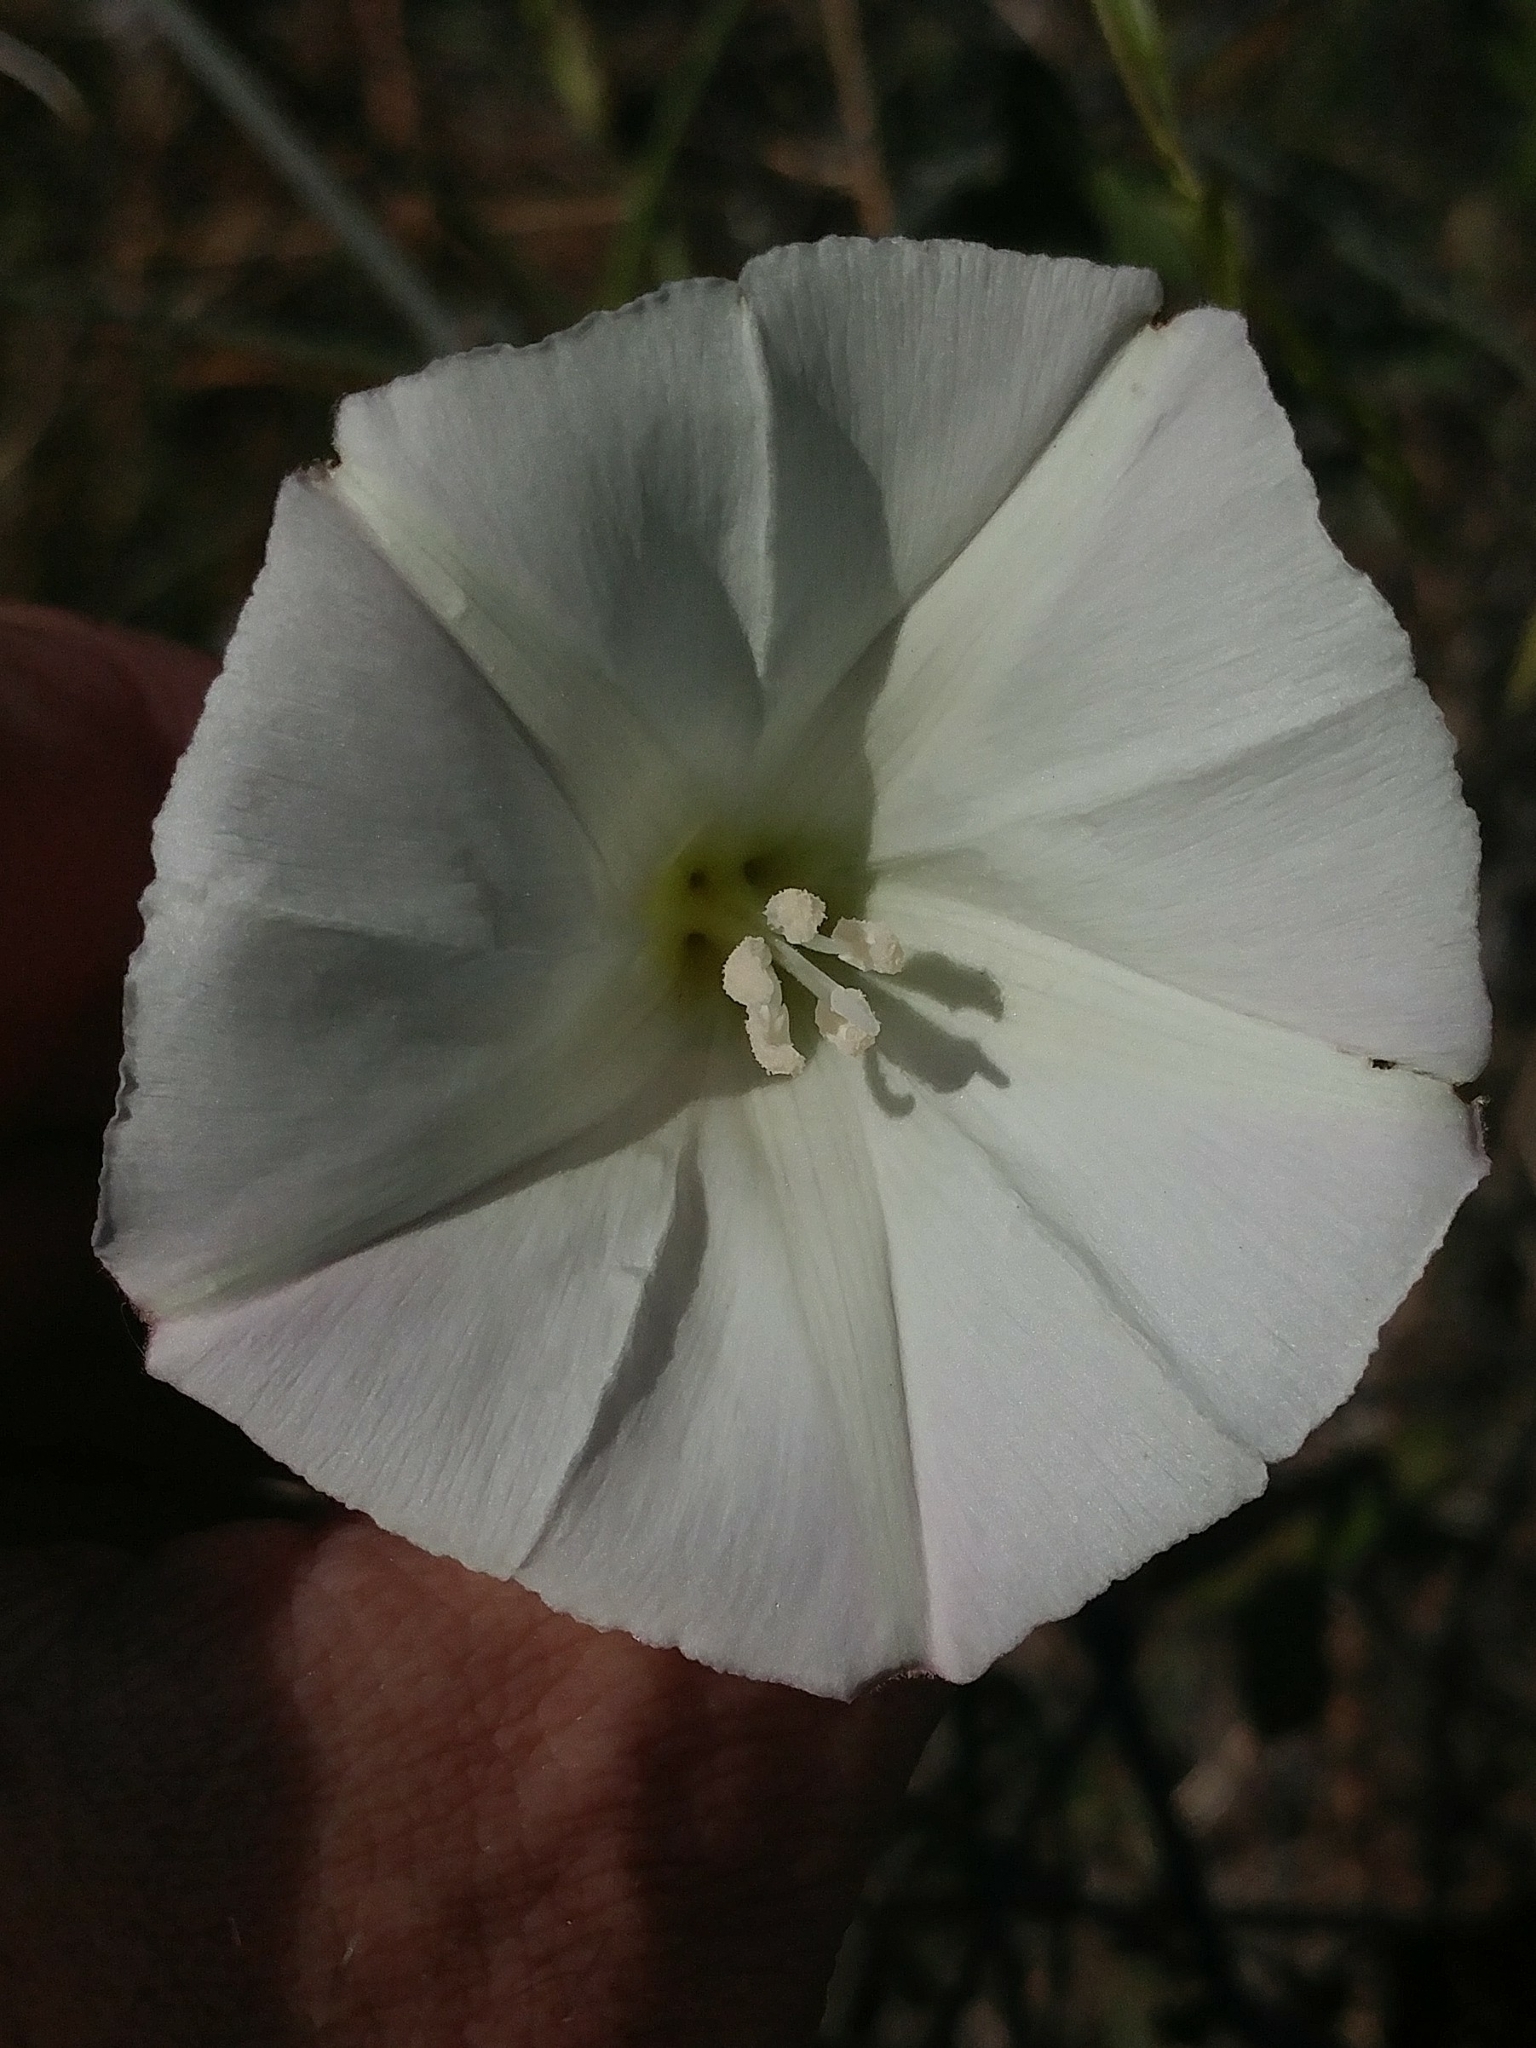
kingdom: Plantae
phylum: Tracheophyta
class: Magnoliopsida
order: Solanales
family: Convolvulaceae
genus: Calystegia
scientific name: Calystegia purpurata
